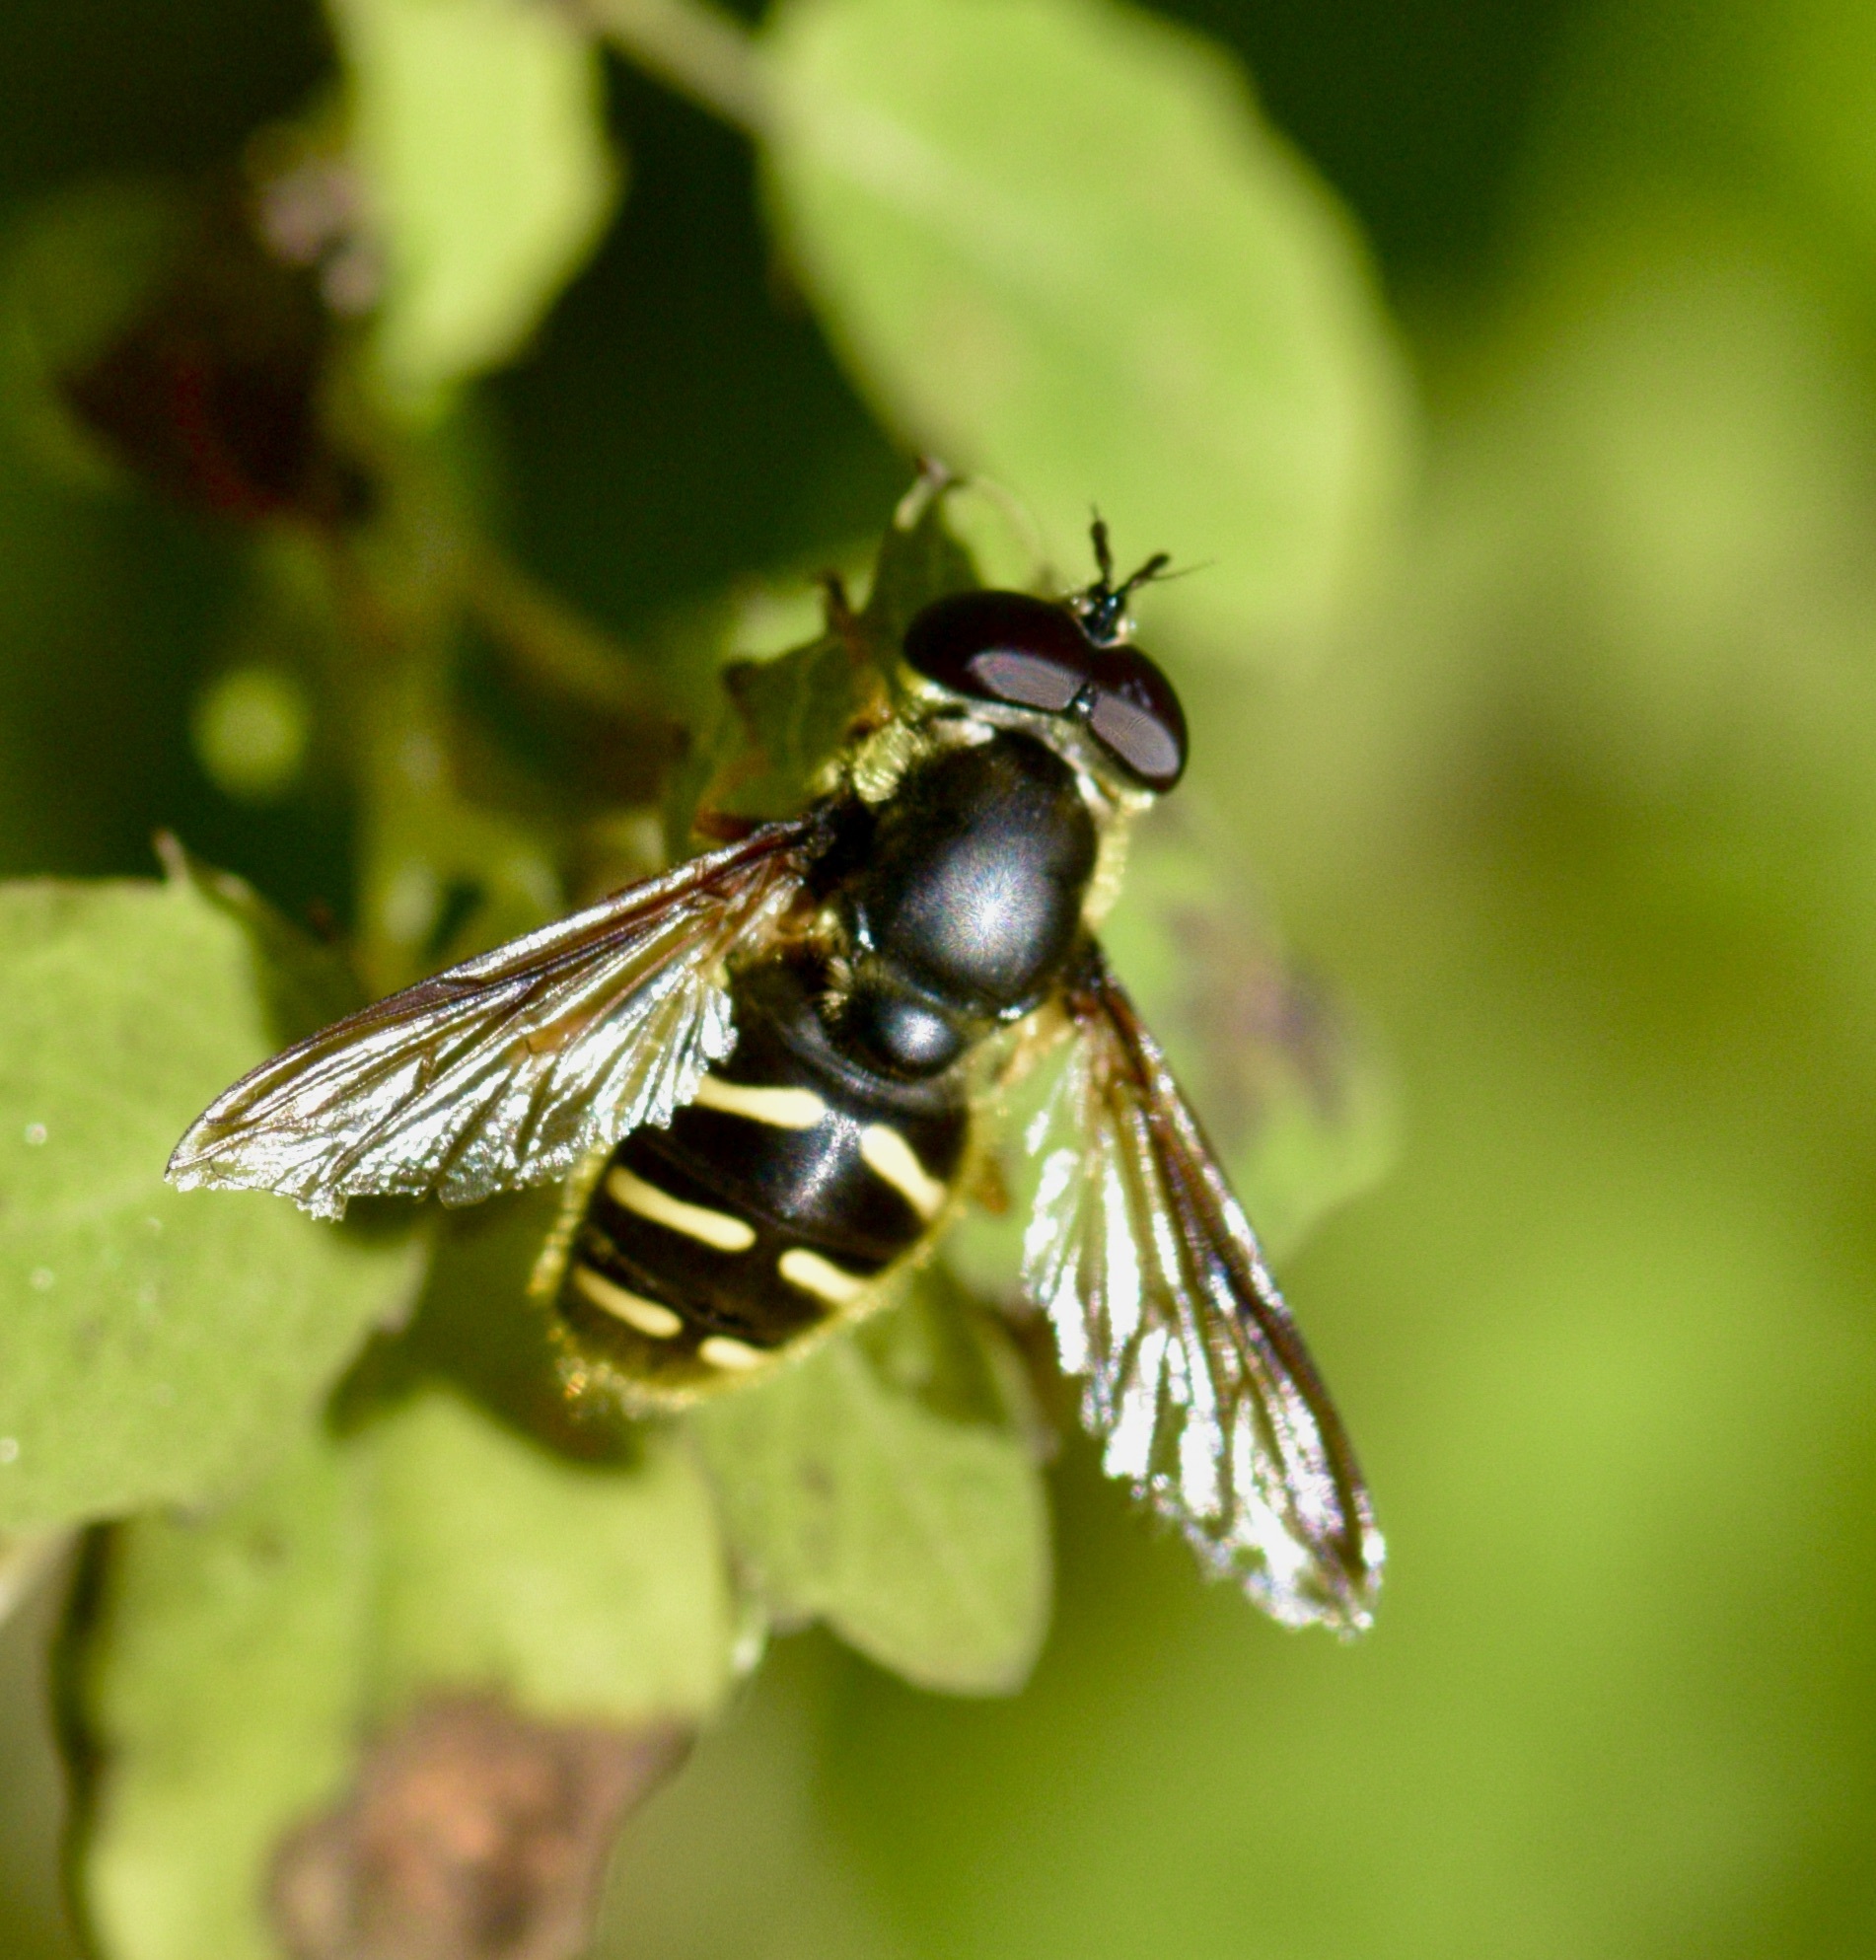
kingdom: Animalia
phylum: Arthropoda
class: Insecta
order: Diptera
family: Syrphidae
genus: Sericomyia
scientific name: Sericomyia chrysotoxoides
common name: Oblique-banded pond fly
